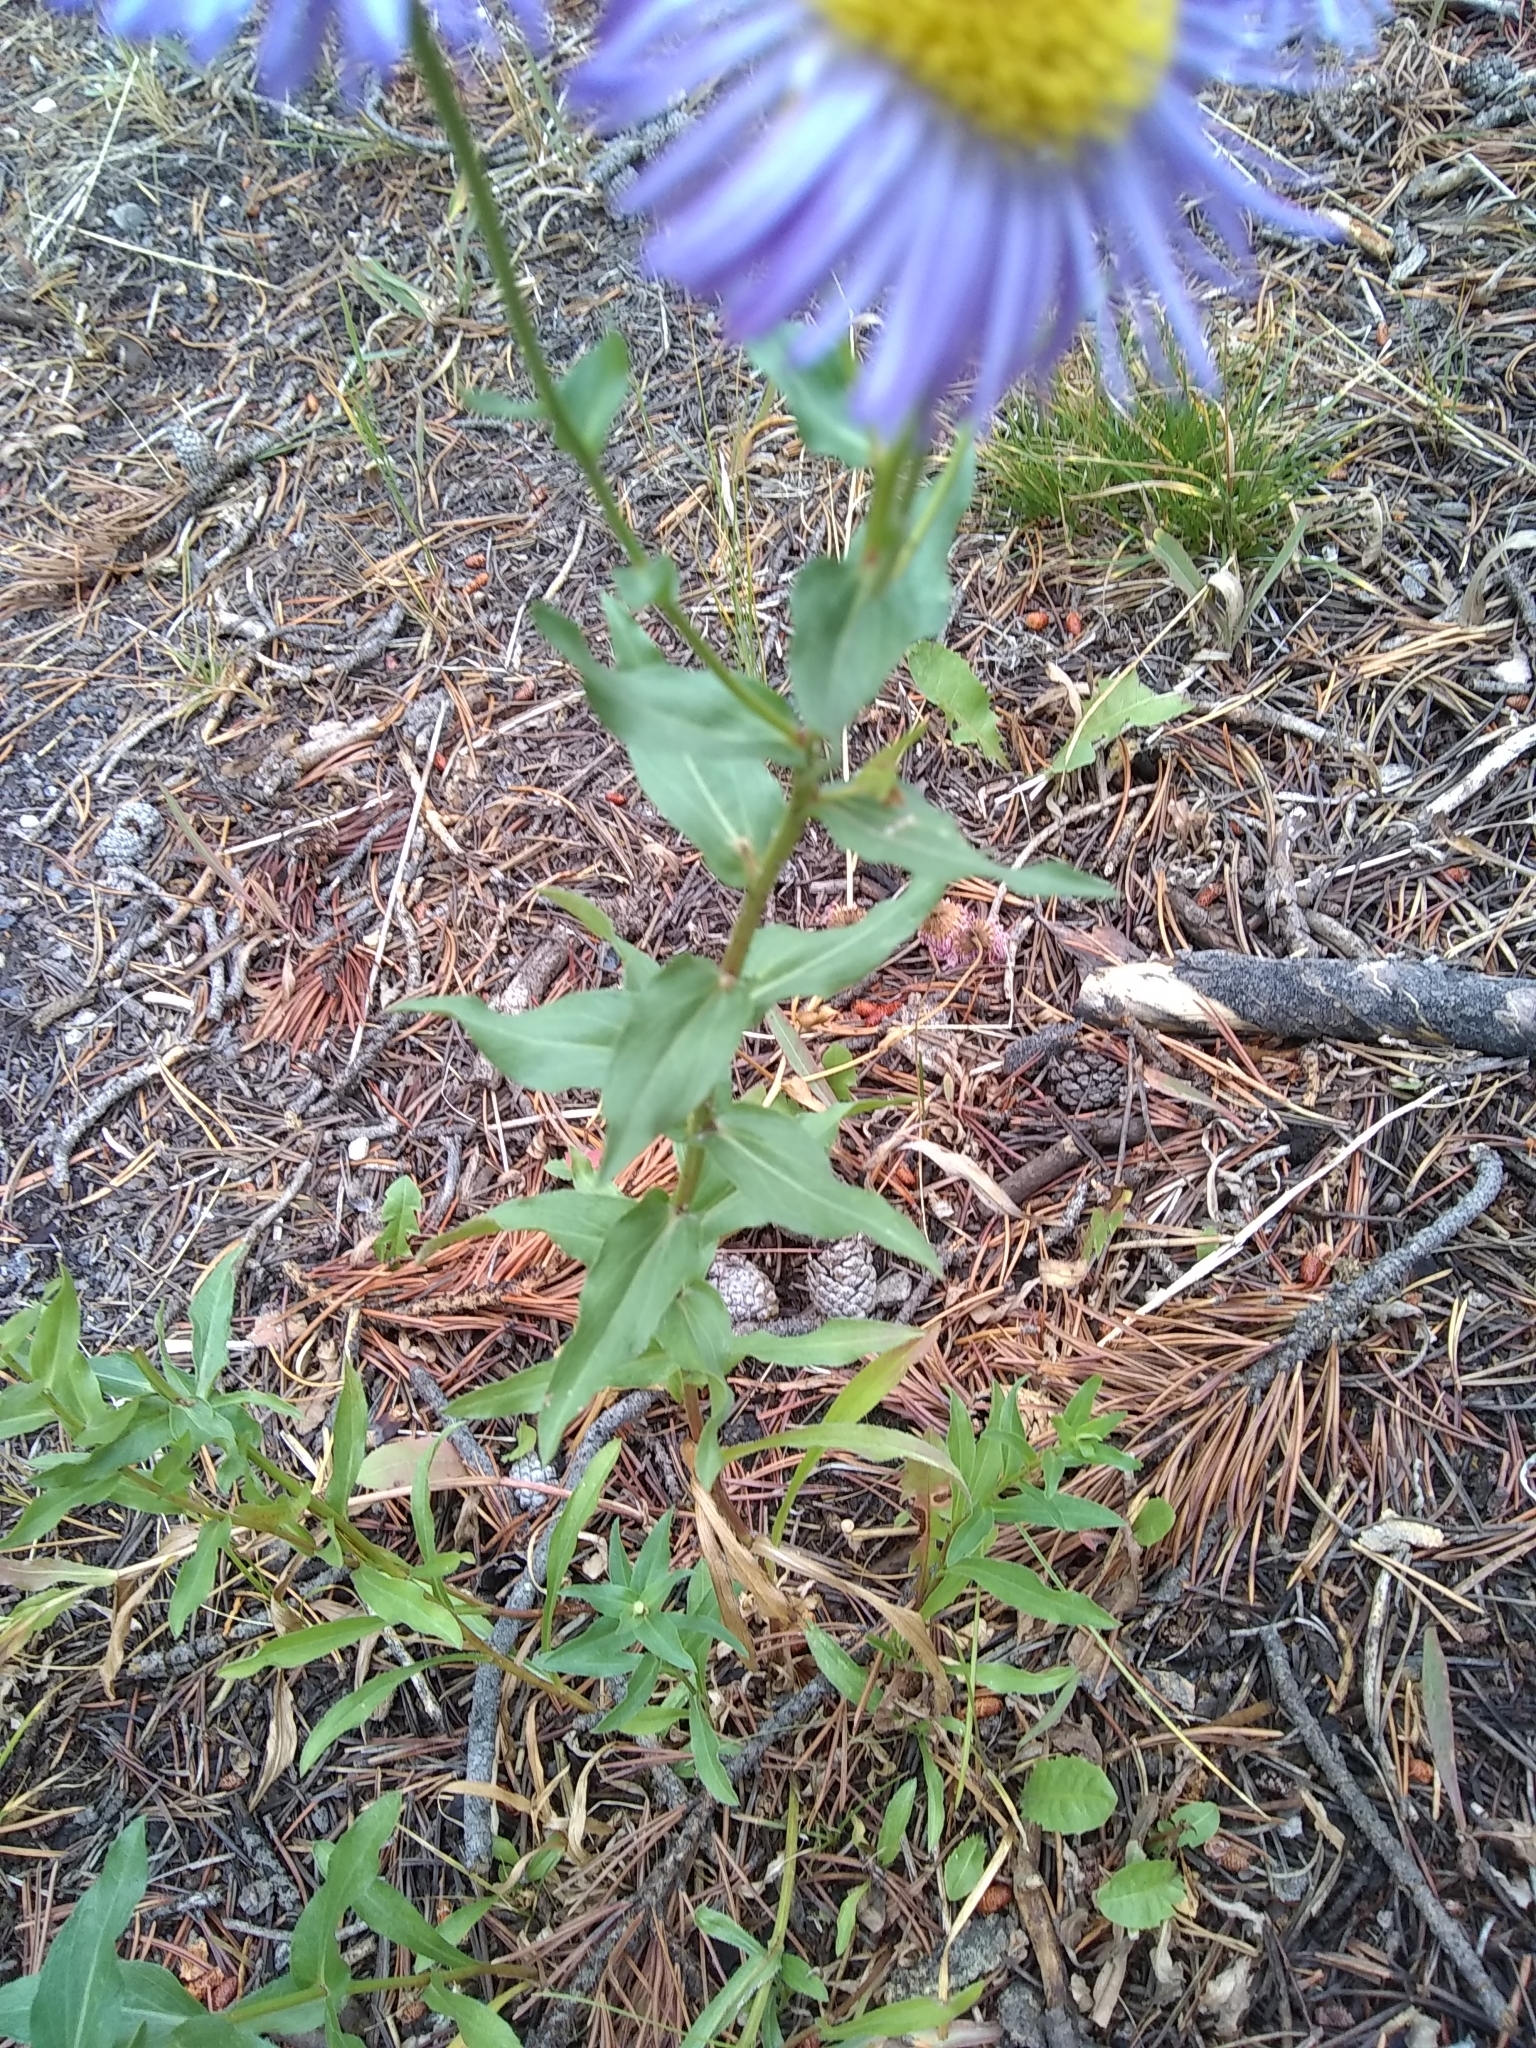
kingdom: Plantae
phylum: Tracheophyta
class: Magnoliopsida
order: Asterales
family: Asteraceae
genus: Erigeron
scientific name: Erigeron speciosus
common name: Aspen fleabane
